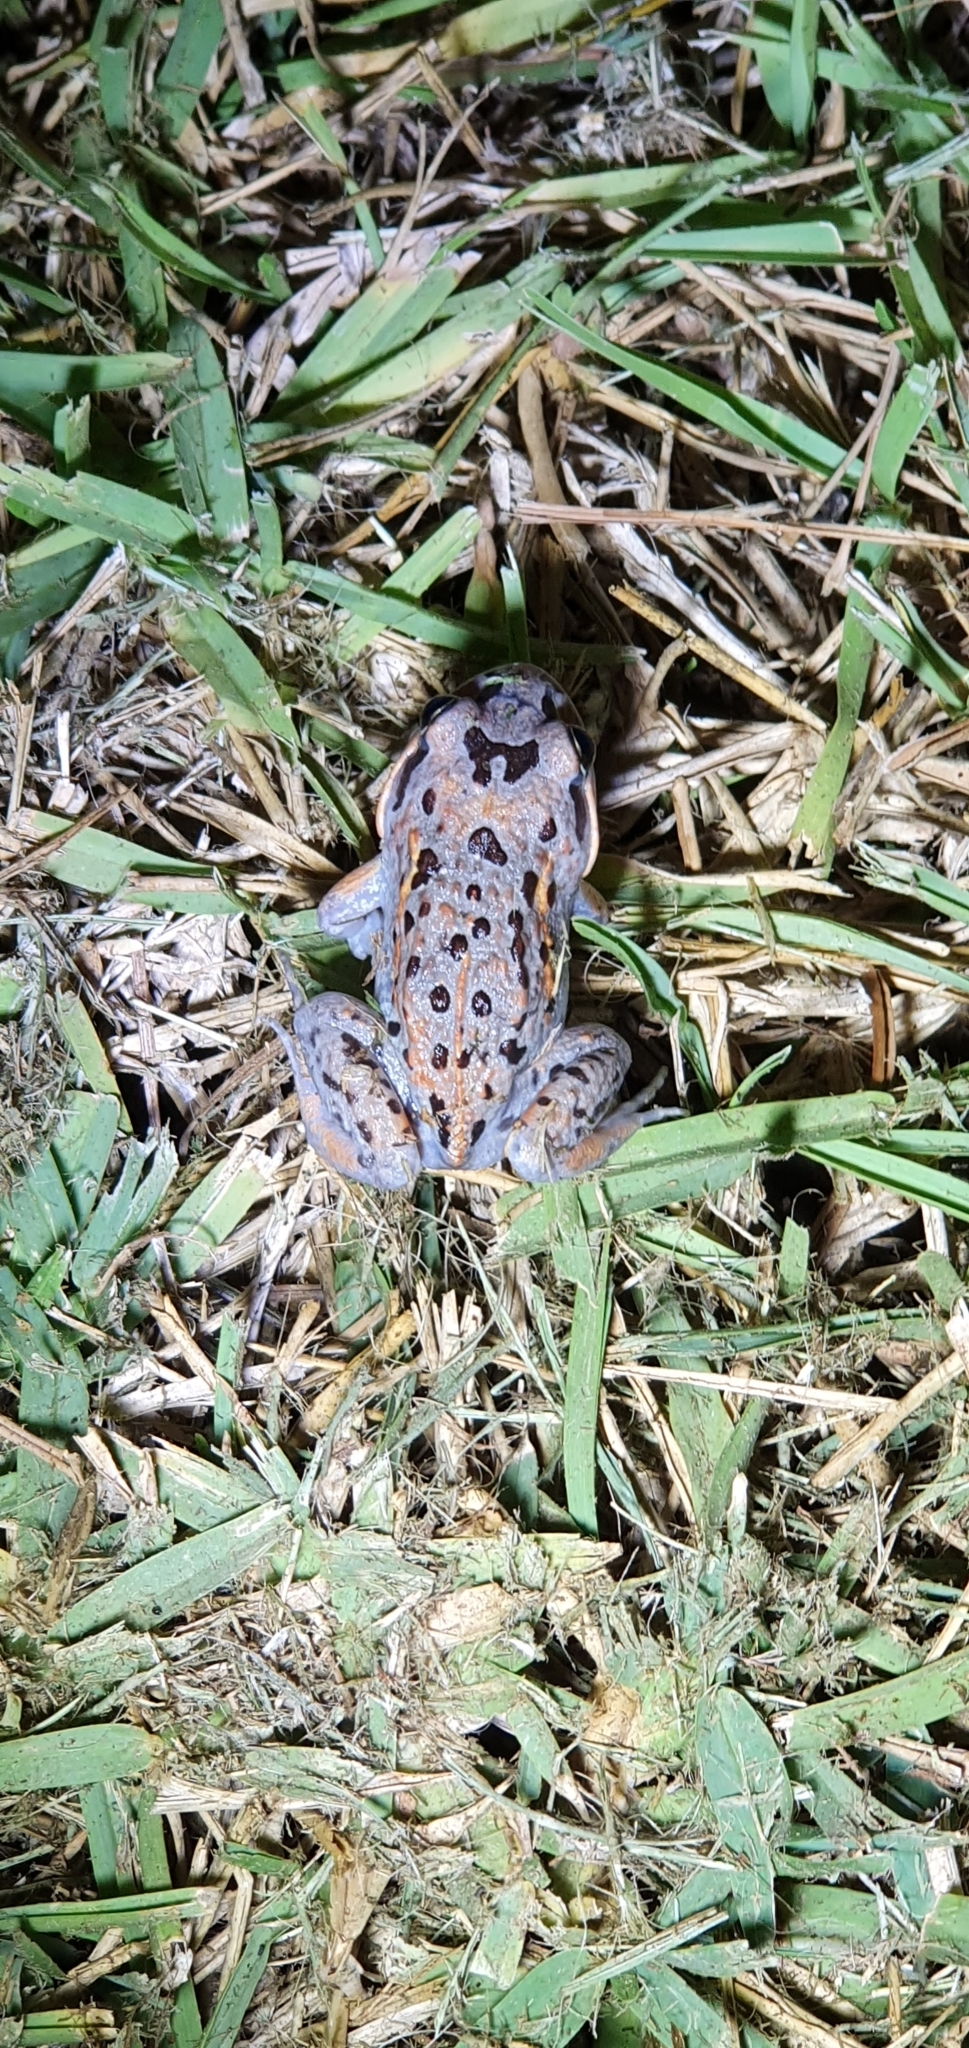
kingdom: Animalia
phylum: Chordata
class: Amphibia
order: Anura
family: Limnodynastidae
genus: Limnodynastes
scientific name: Limnodynastes salmini
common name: Salmon-striped frog
